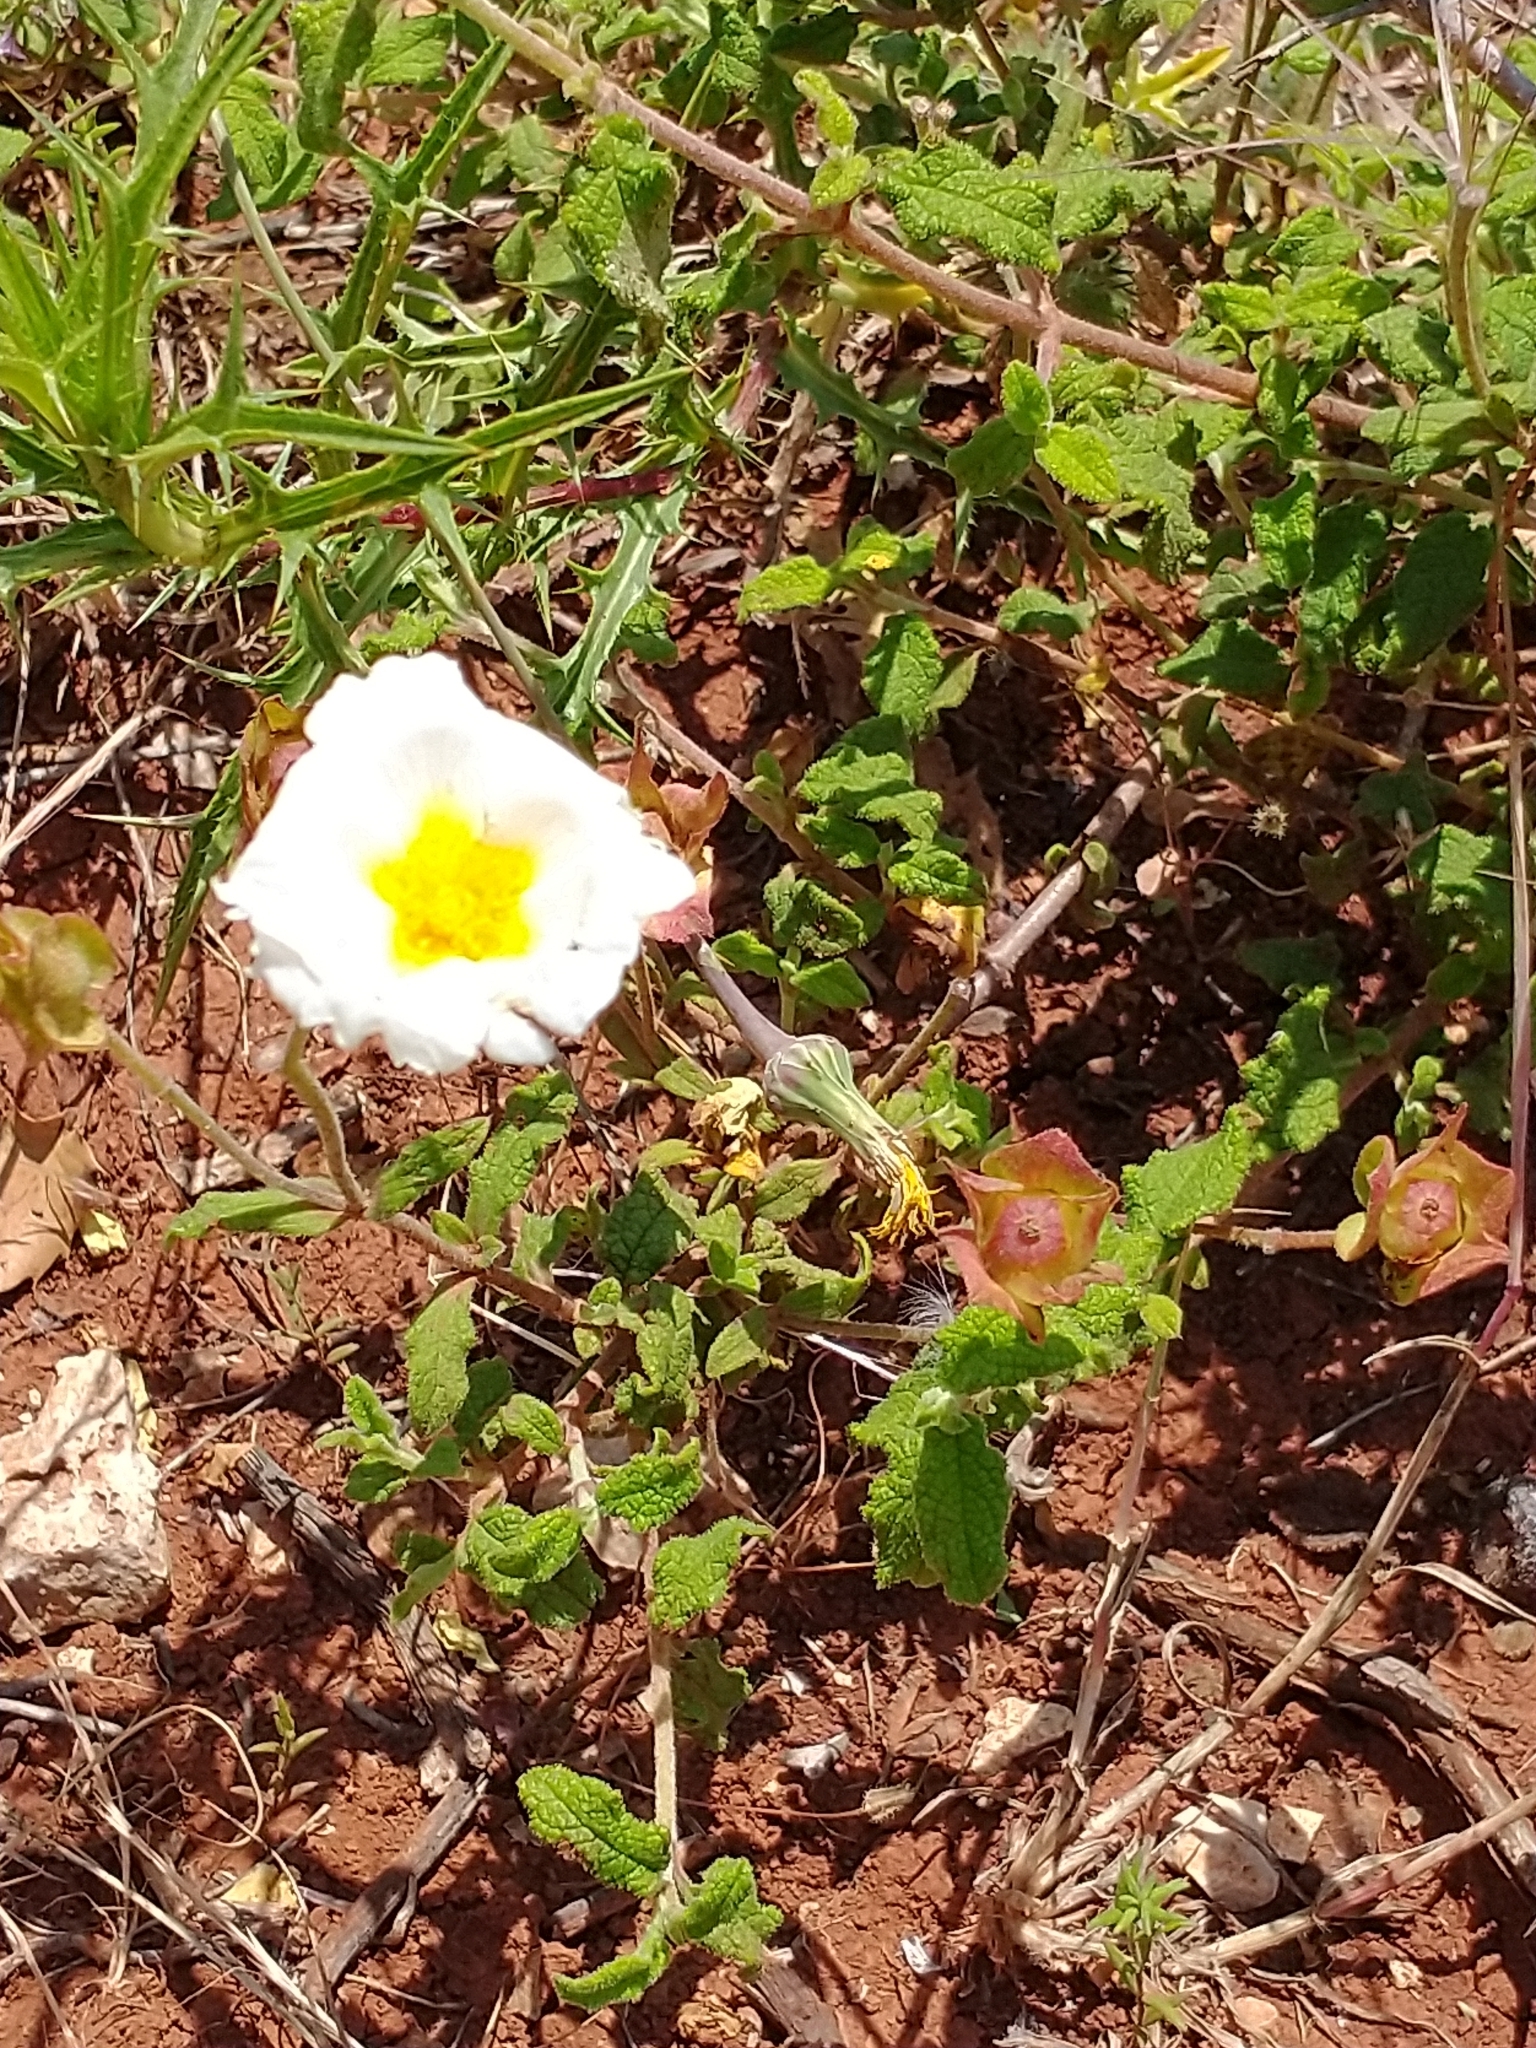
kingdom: Plantae
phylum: Tracheophyta
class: Magnoliopsida
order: Malvales
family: Cistaceae
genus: Cistus
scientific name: Cistus salviifolius
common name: Salvia cistus
